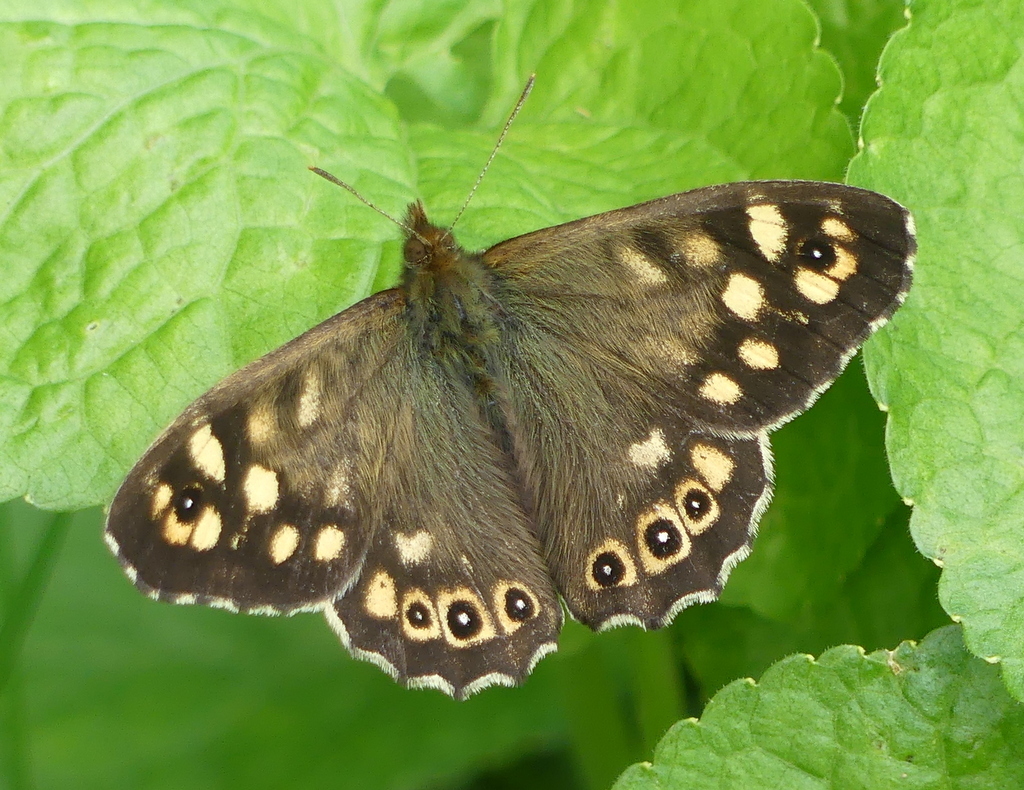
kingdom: Animalia
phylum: Arthropoda
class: Insecta
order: Lepidoptera
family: Nymphalidae
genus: Pararge
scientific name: Pararge aegeria
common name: Speckled wood
